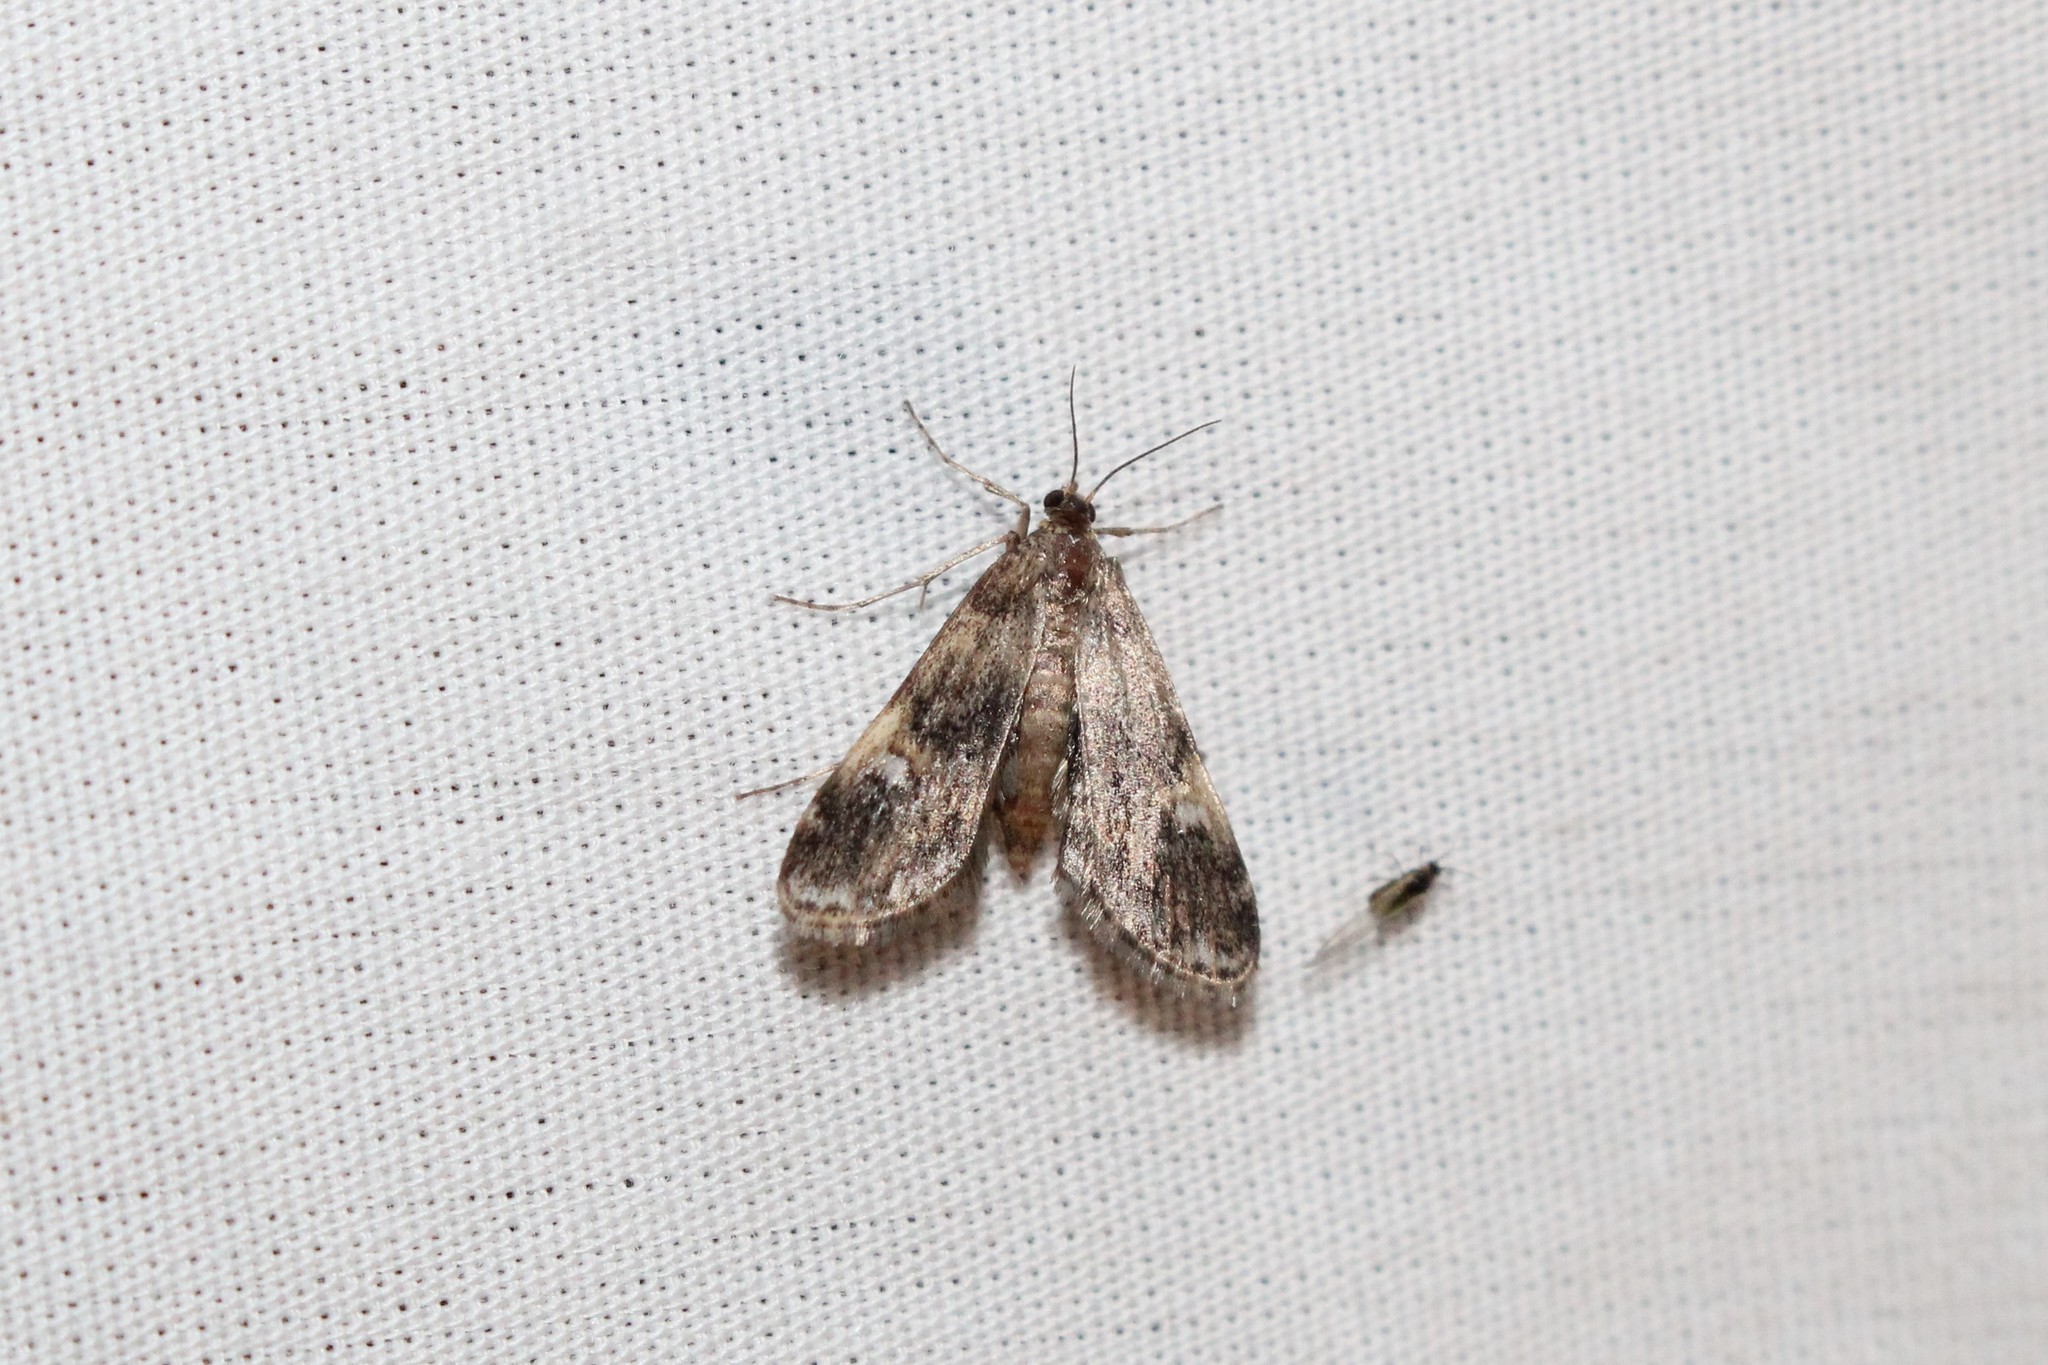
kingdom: Animalia
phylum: Arthropoda
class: Insecta
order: Lepidoptera
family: Crambidae
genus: Elophila
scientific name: Elophila obliteralis
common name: Waterlily leafcutter moth
